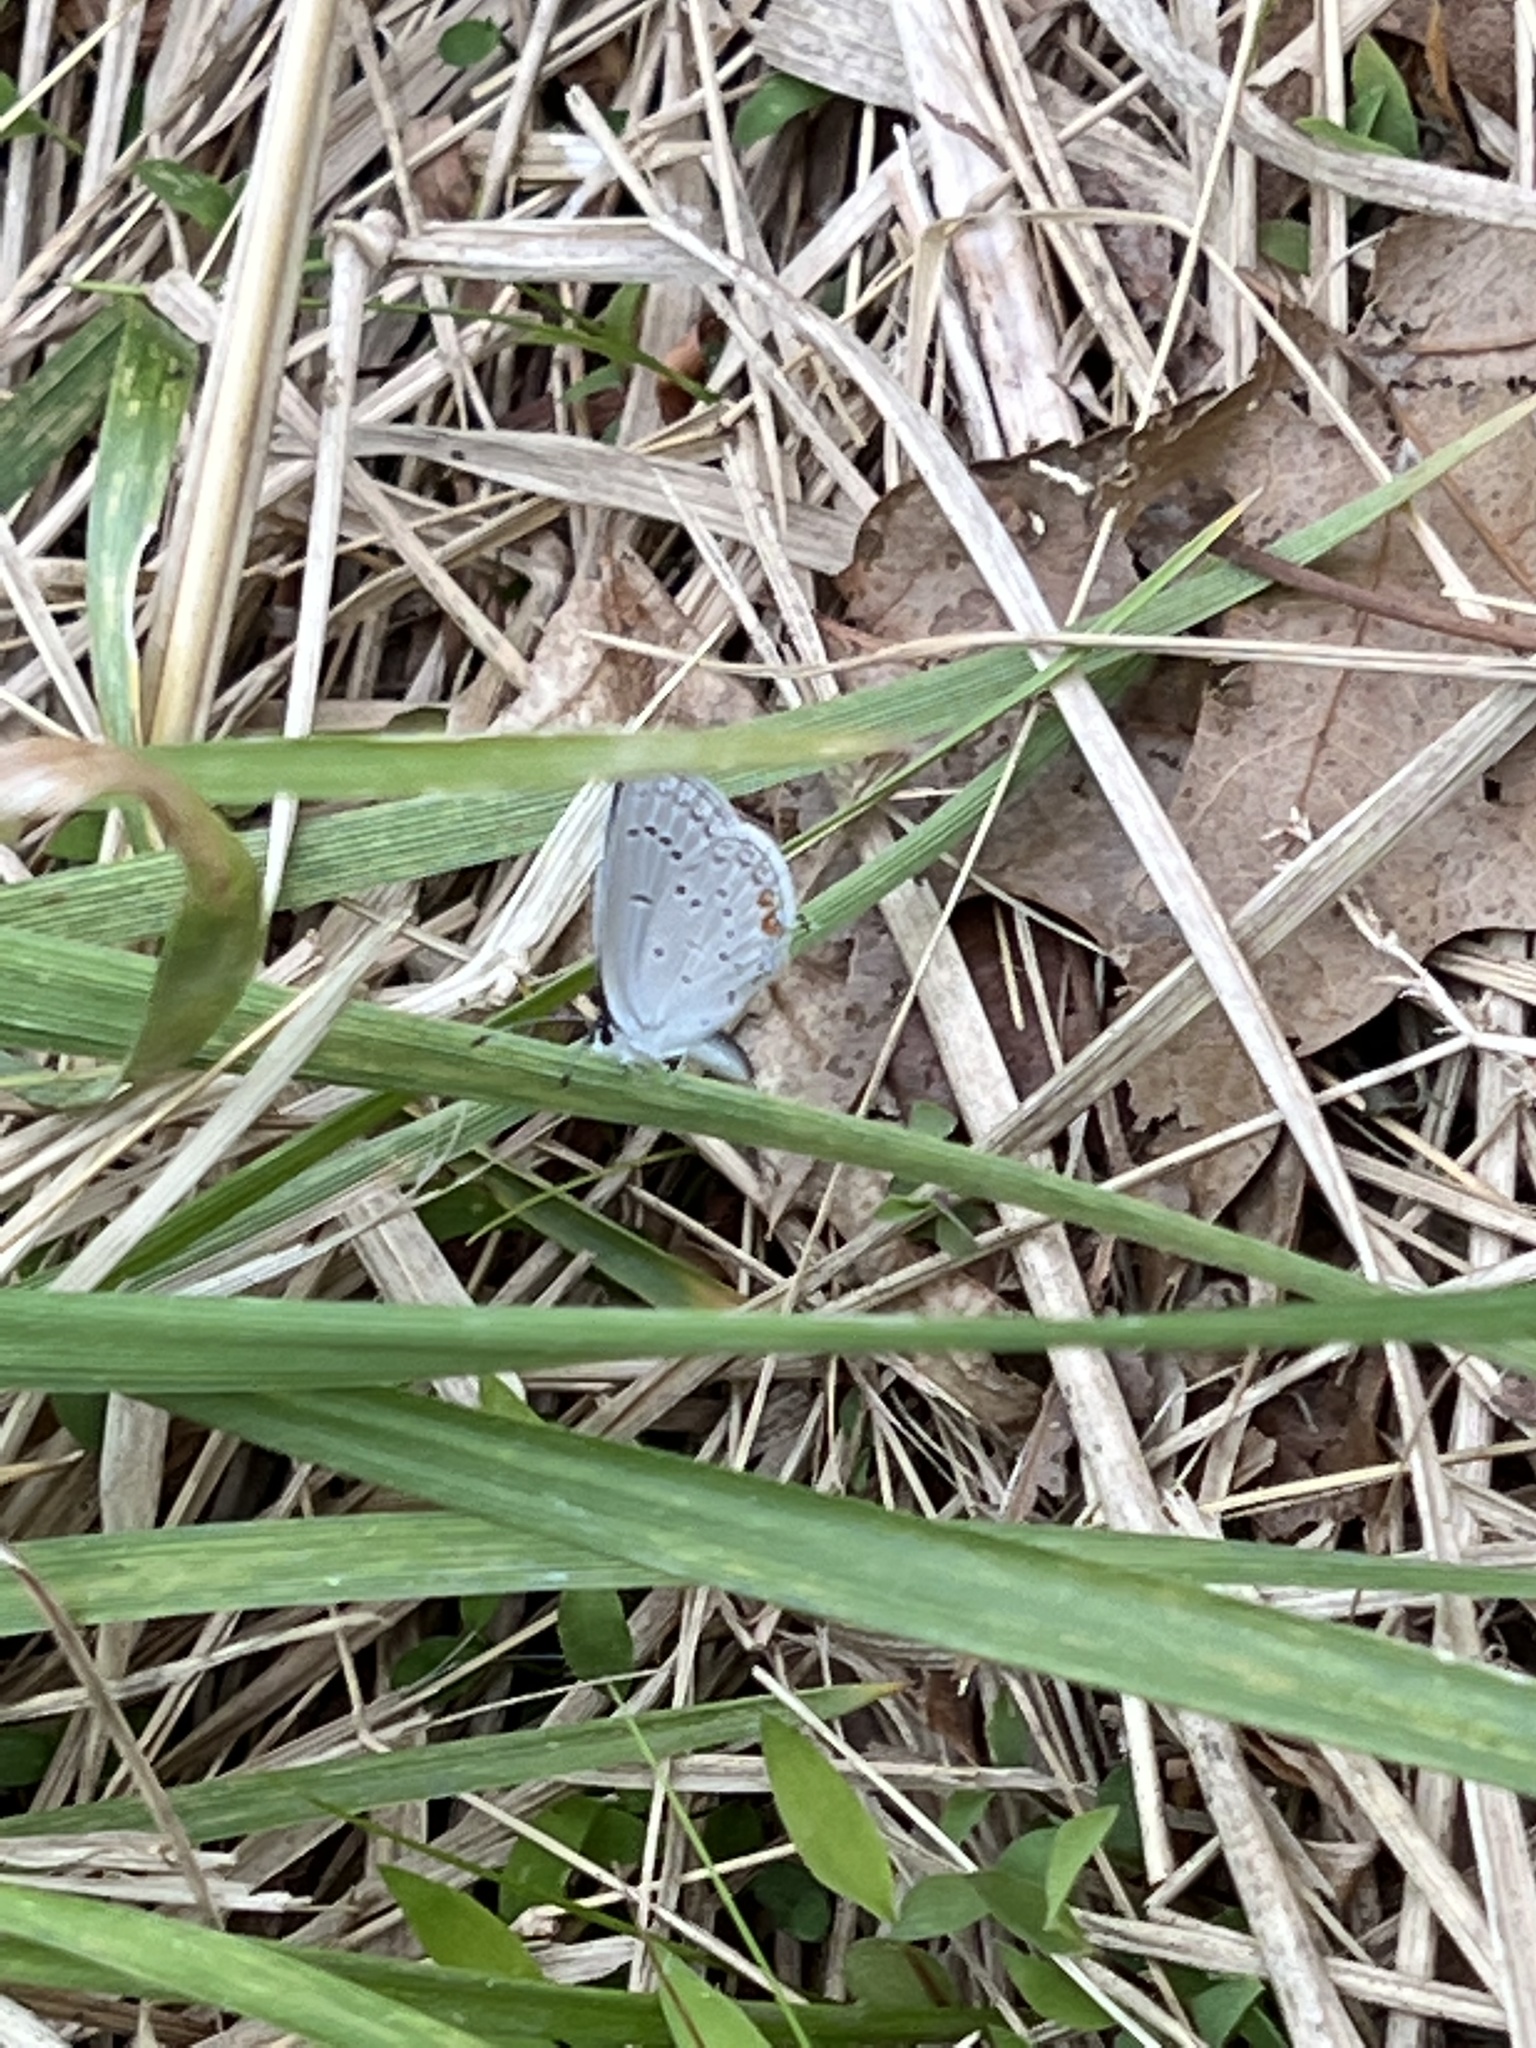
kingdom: Animalia
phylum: Arthropoda
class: Insecta
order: Lepidoptera
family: Lycaenidae
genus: Elkalyce
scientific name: Elkalyce comyntas
